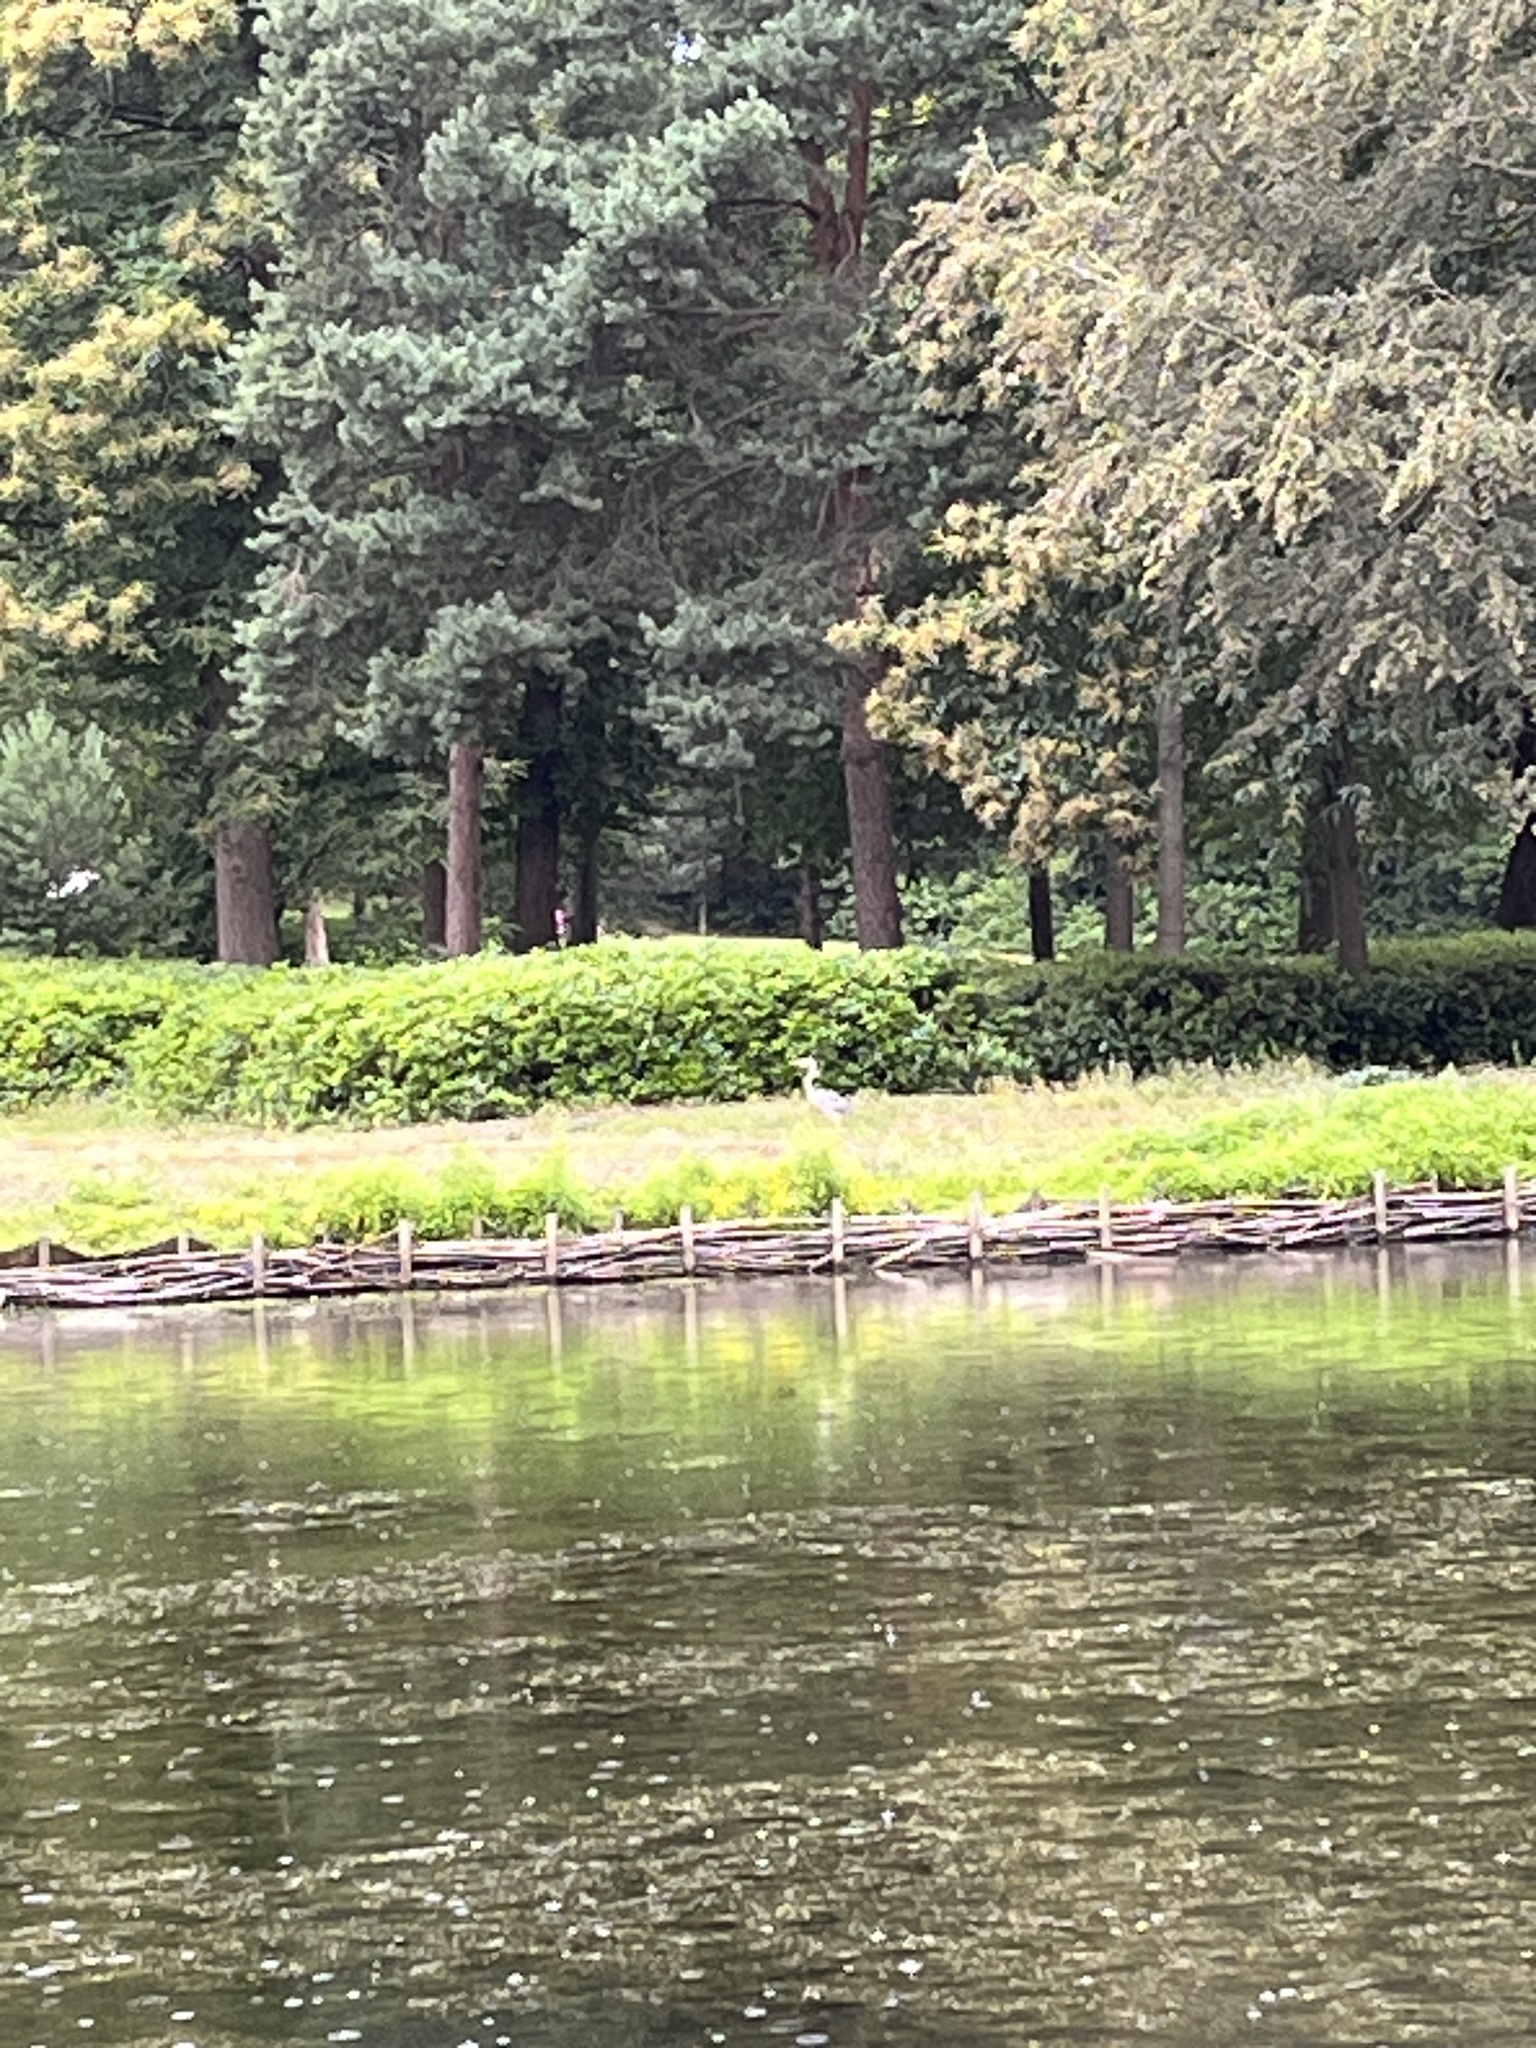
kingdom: Animalia
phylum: Chordata
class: Aves
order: Pelecaniformes
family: Ardeidae
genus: Ardea
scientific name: Ardea cinerea
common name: Grey heron
